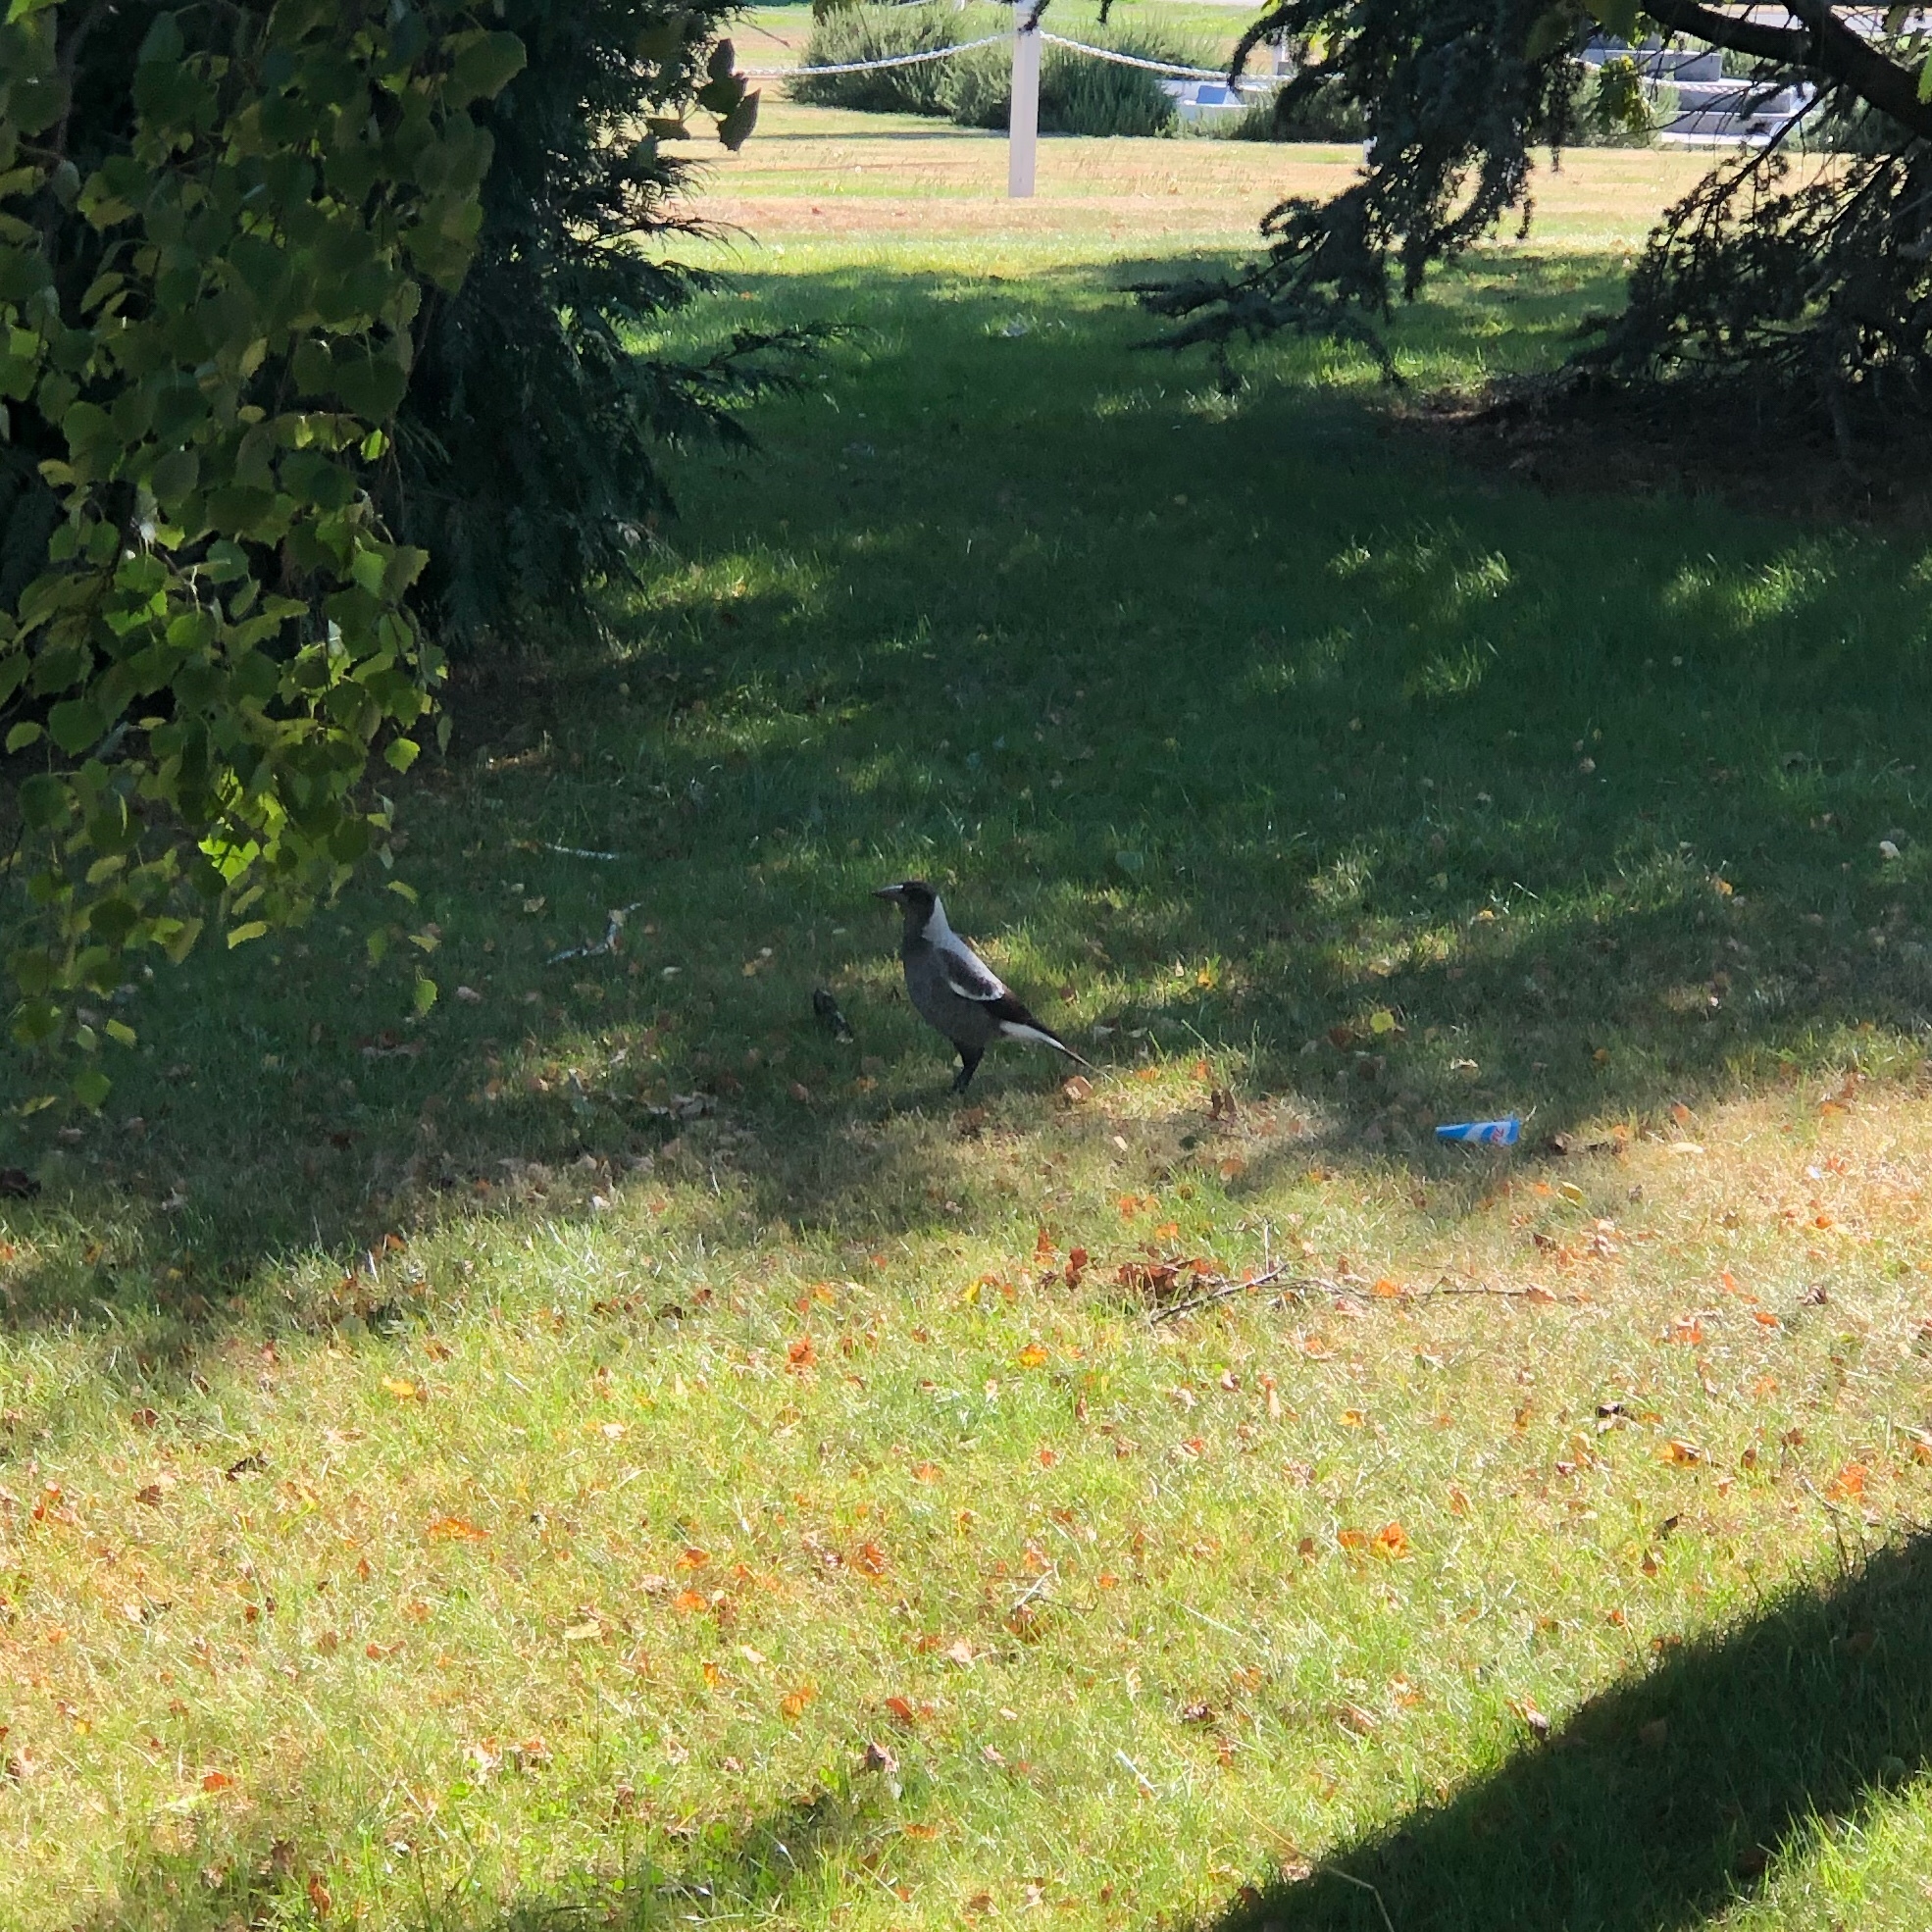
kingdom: Animalia
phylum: Chordata
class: Aves
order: Passeriformes
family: Cracticidae
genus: Gymnorhina
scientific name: Gymnorhina tibicen
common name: Australian magpie
